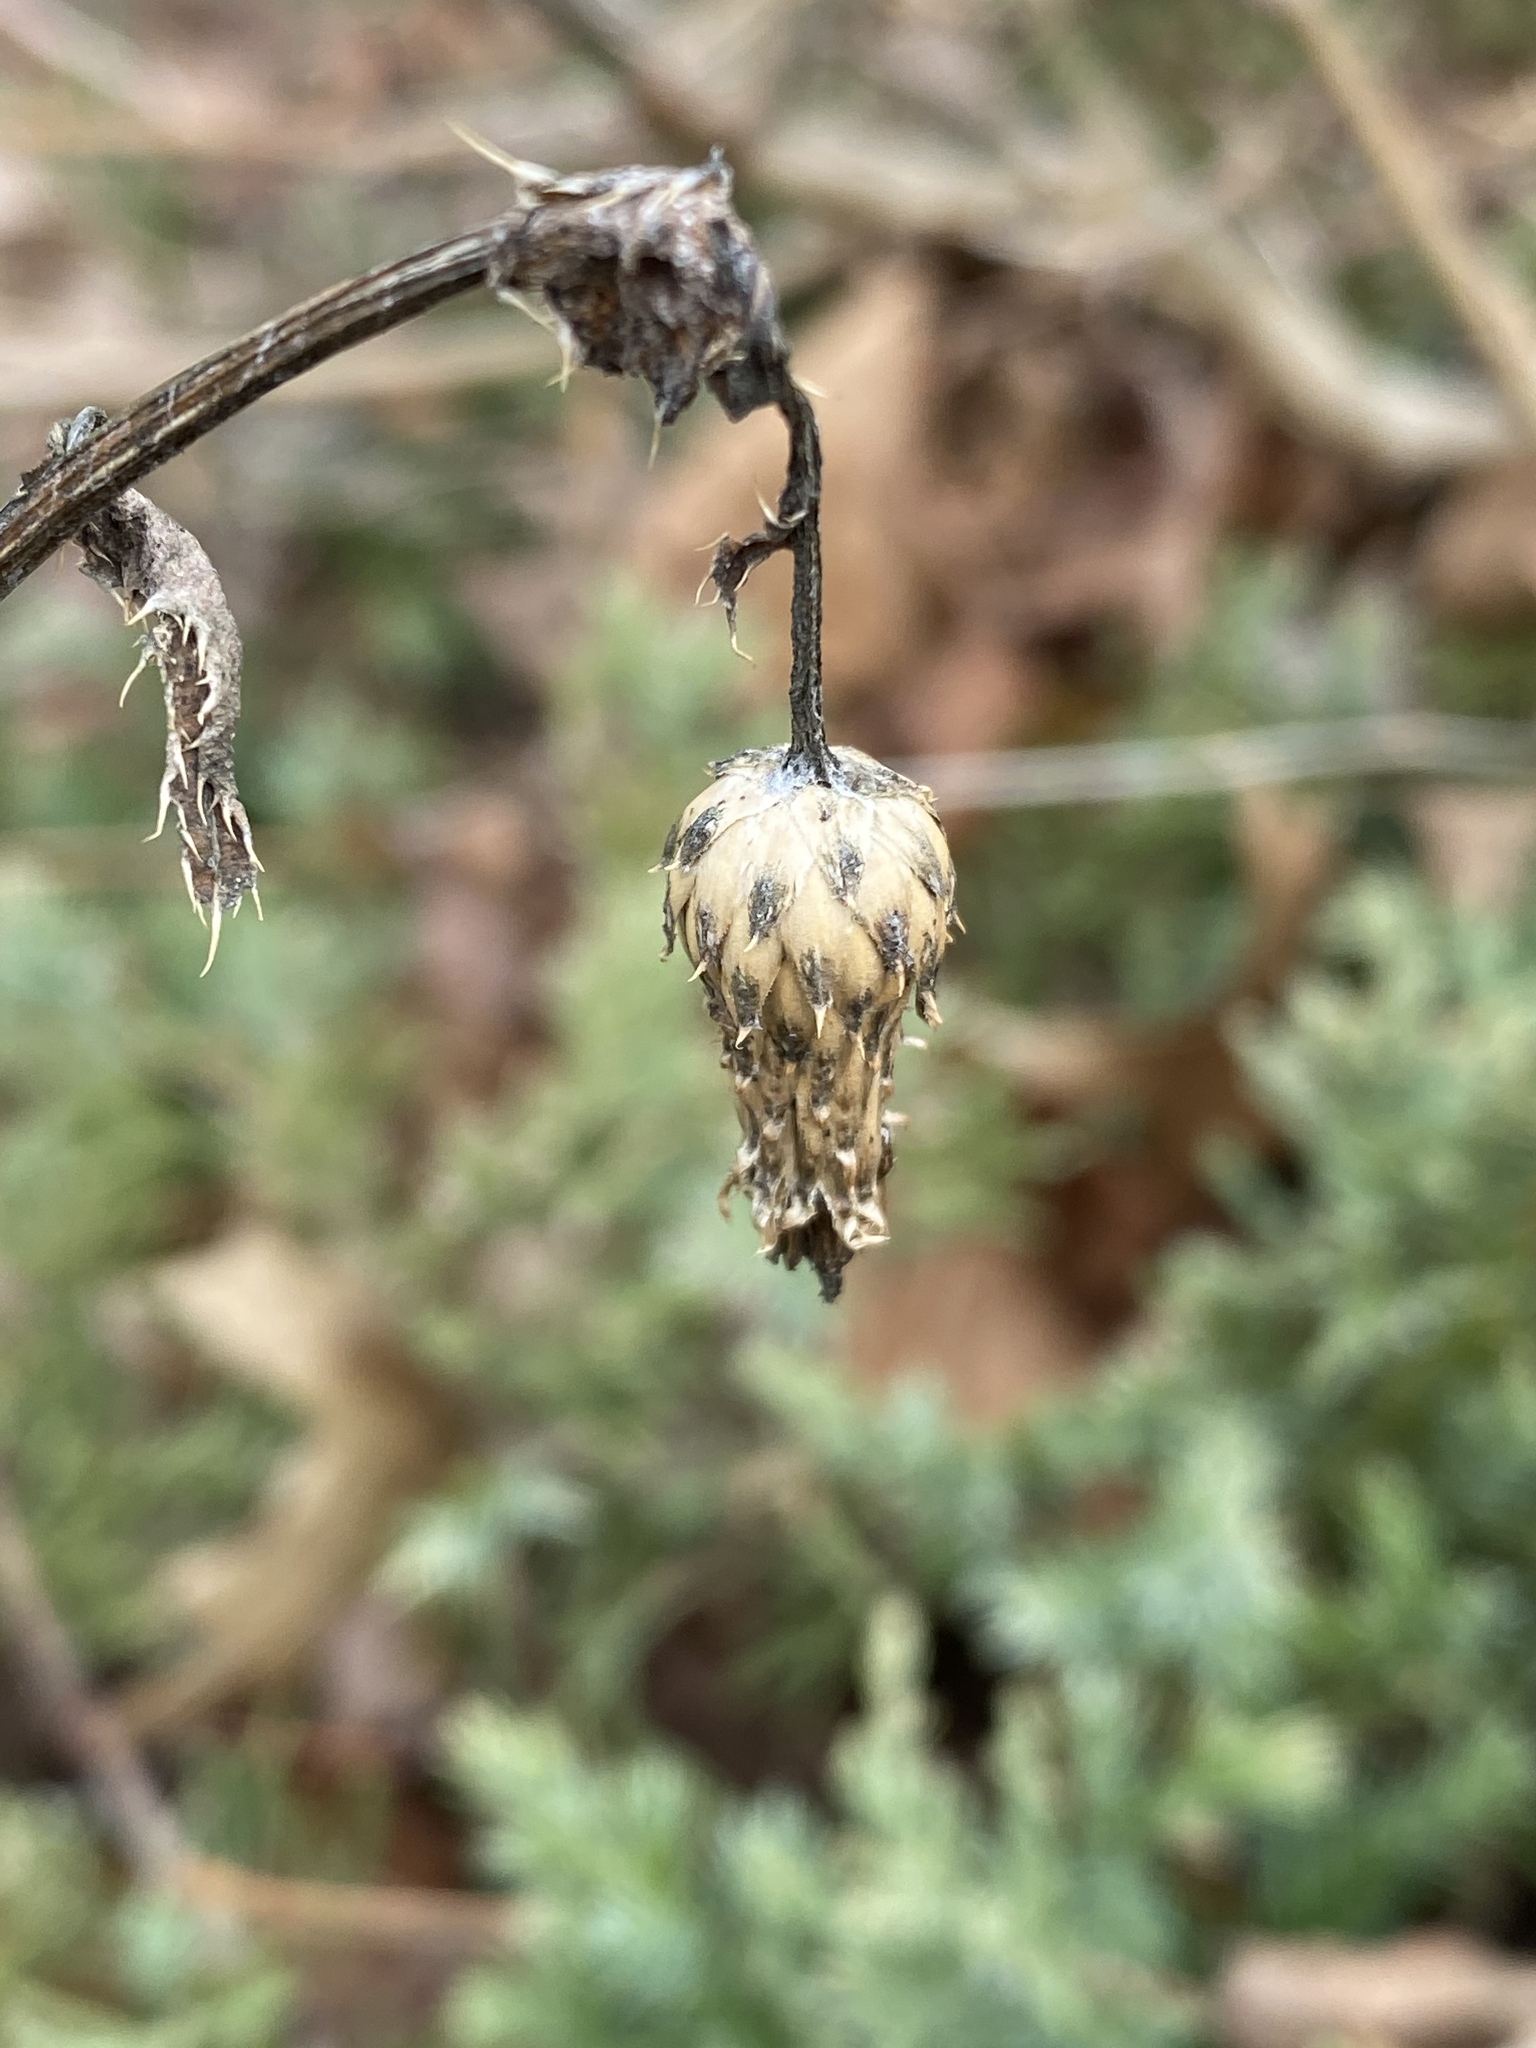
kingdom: Plantae
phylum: Tracheophyta
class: Magnoliopsida
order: Asterales
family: Asteraceae
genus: Cirsium
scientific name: Cirsium arvense
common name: Creeping thistle
